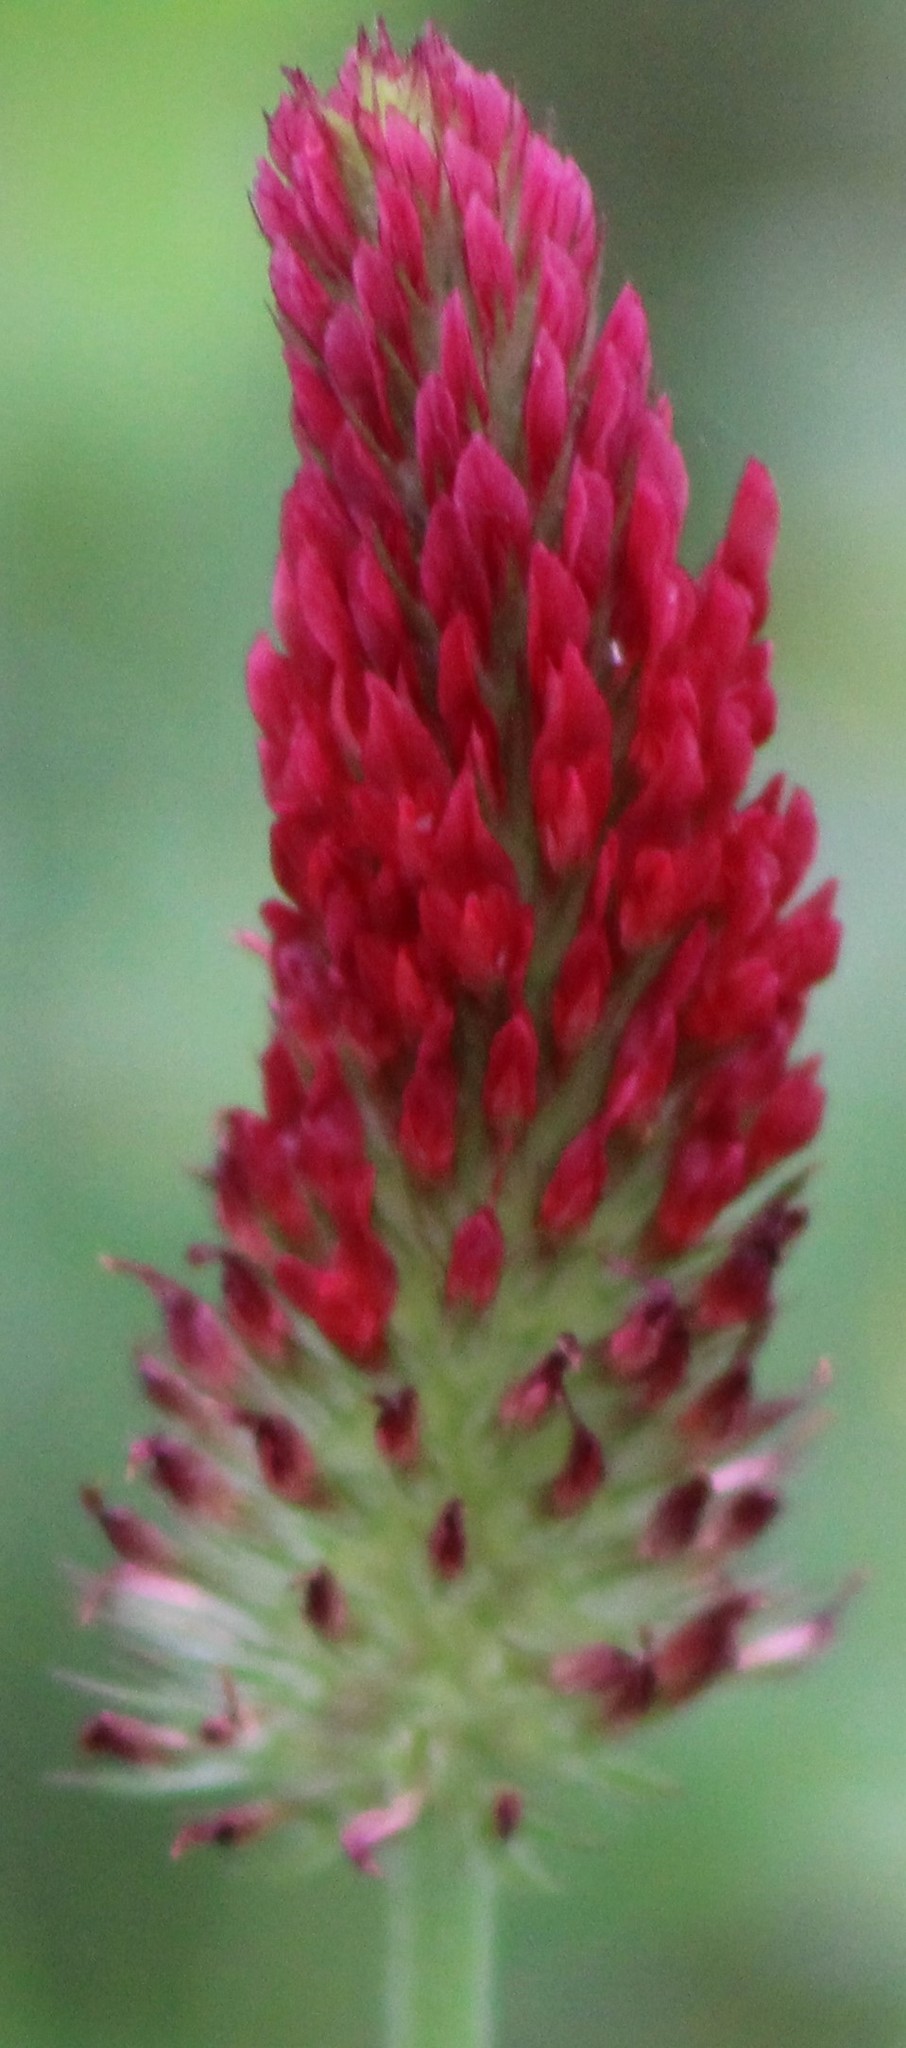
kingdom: Plantae
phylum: Tracheophyta
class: Magnoliopsida
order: Fabales
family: Fabaceae
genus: Trifolium
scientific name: Trifolium incarnatum
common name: Crimson clover
